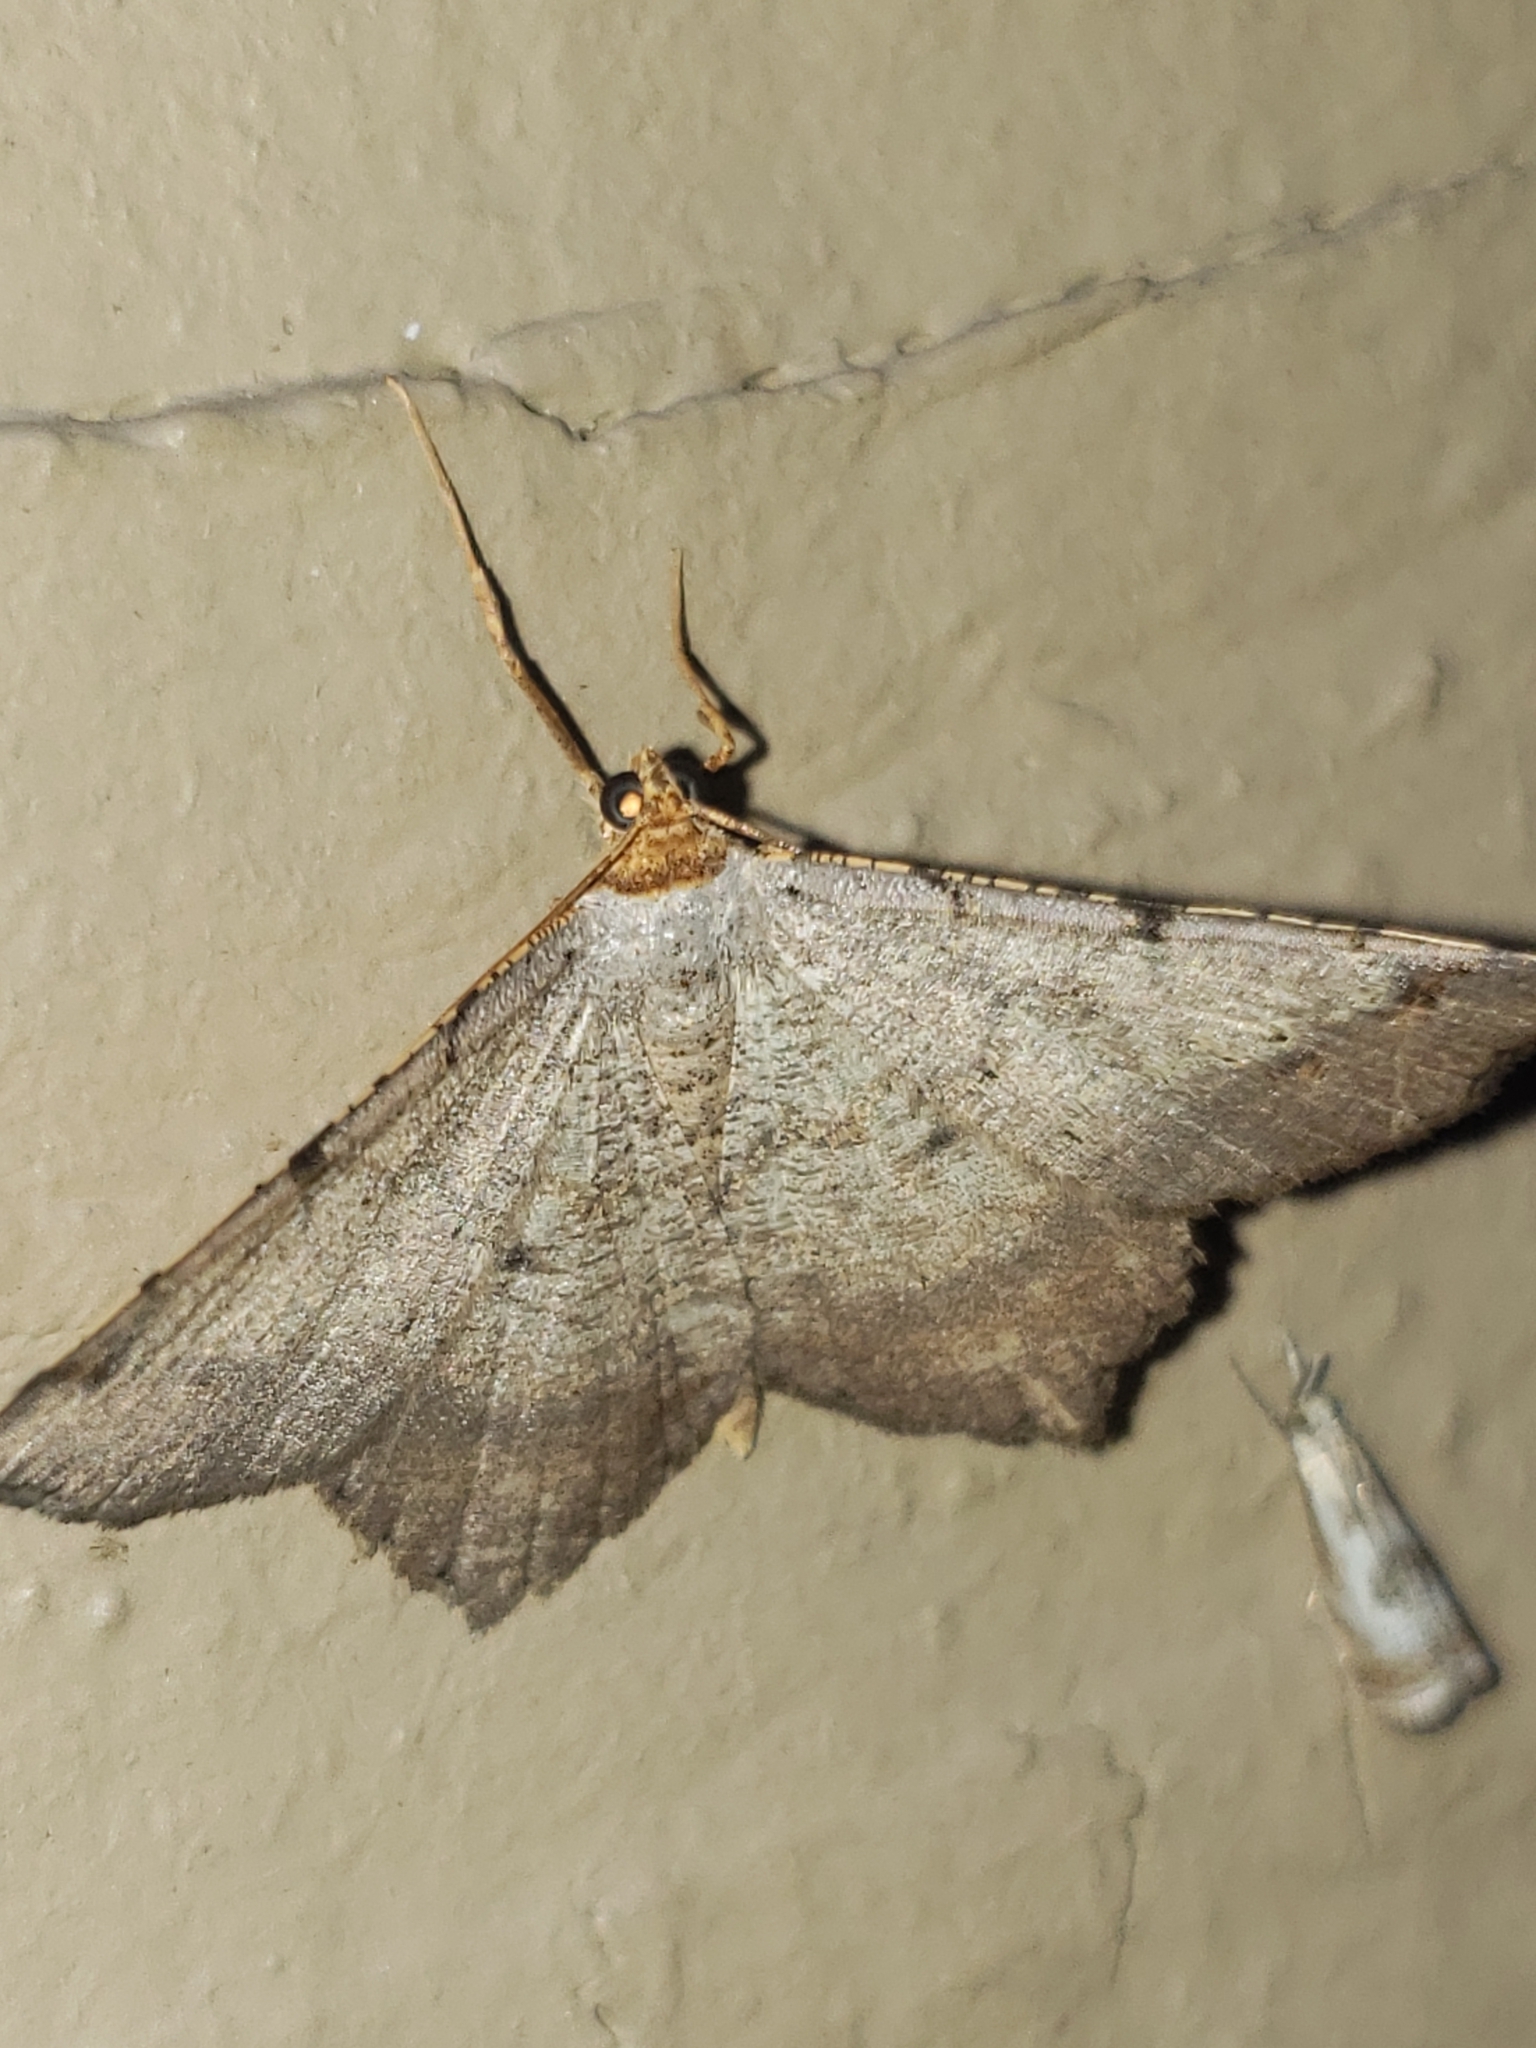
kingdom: Animalia
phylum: Arthropoda
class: Insecta
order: Lepidoptera
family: Geometridae
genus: Macaria
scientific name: Macaria bicolorata
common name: Dingy angle
